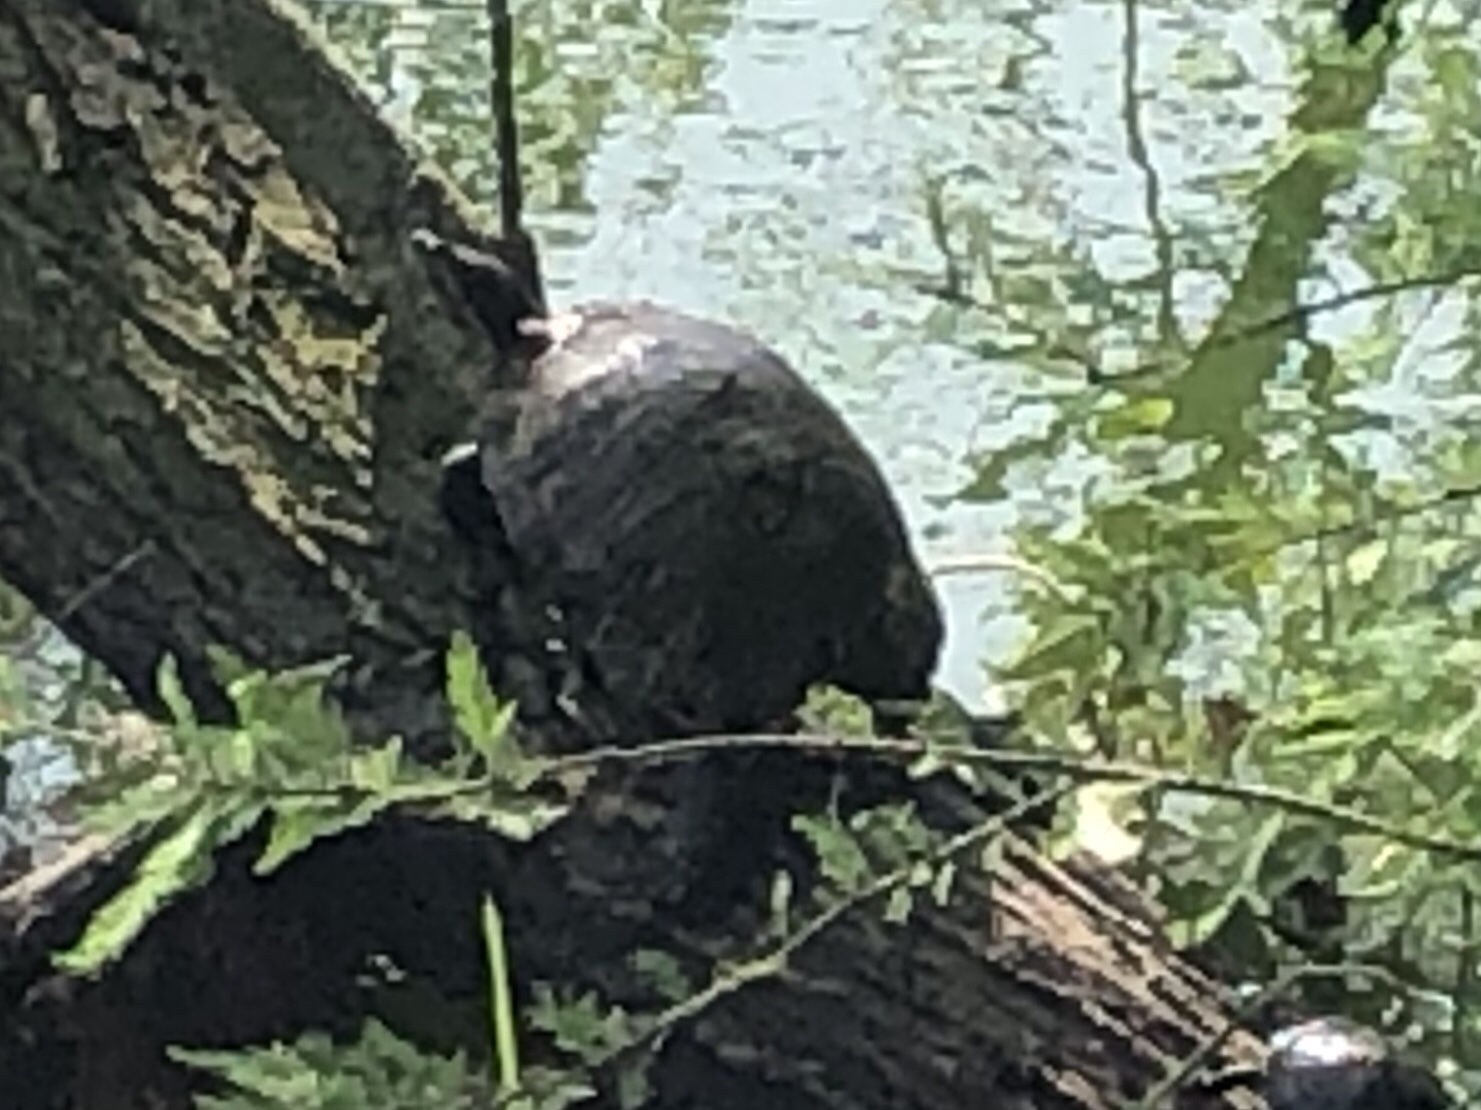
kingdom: Animalia
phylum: Chordata
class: Testudines
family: Emydidae
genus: Trachemys
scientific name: Trachemys scripta
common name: Slider
